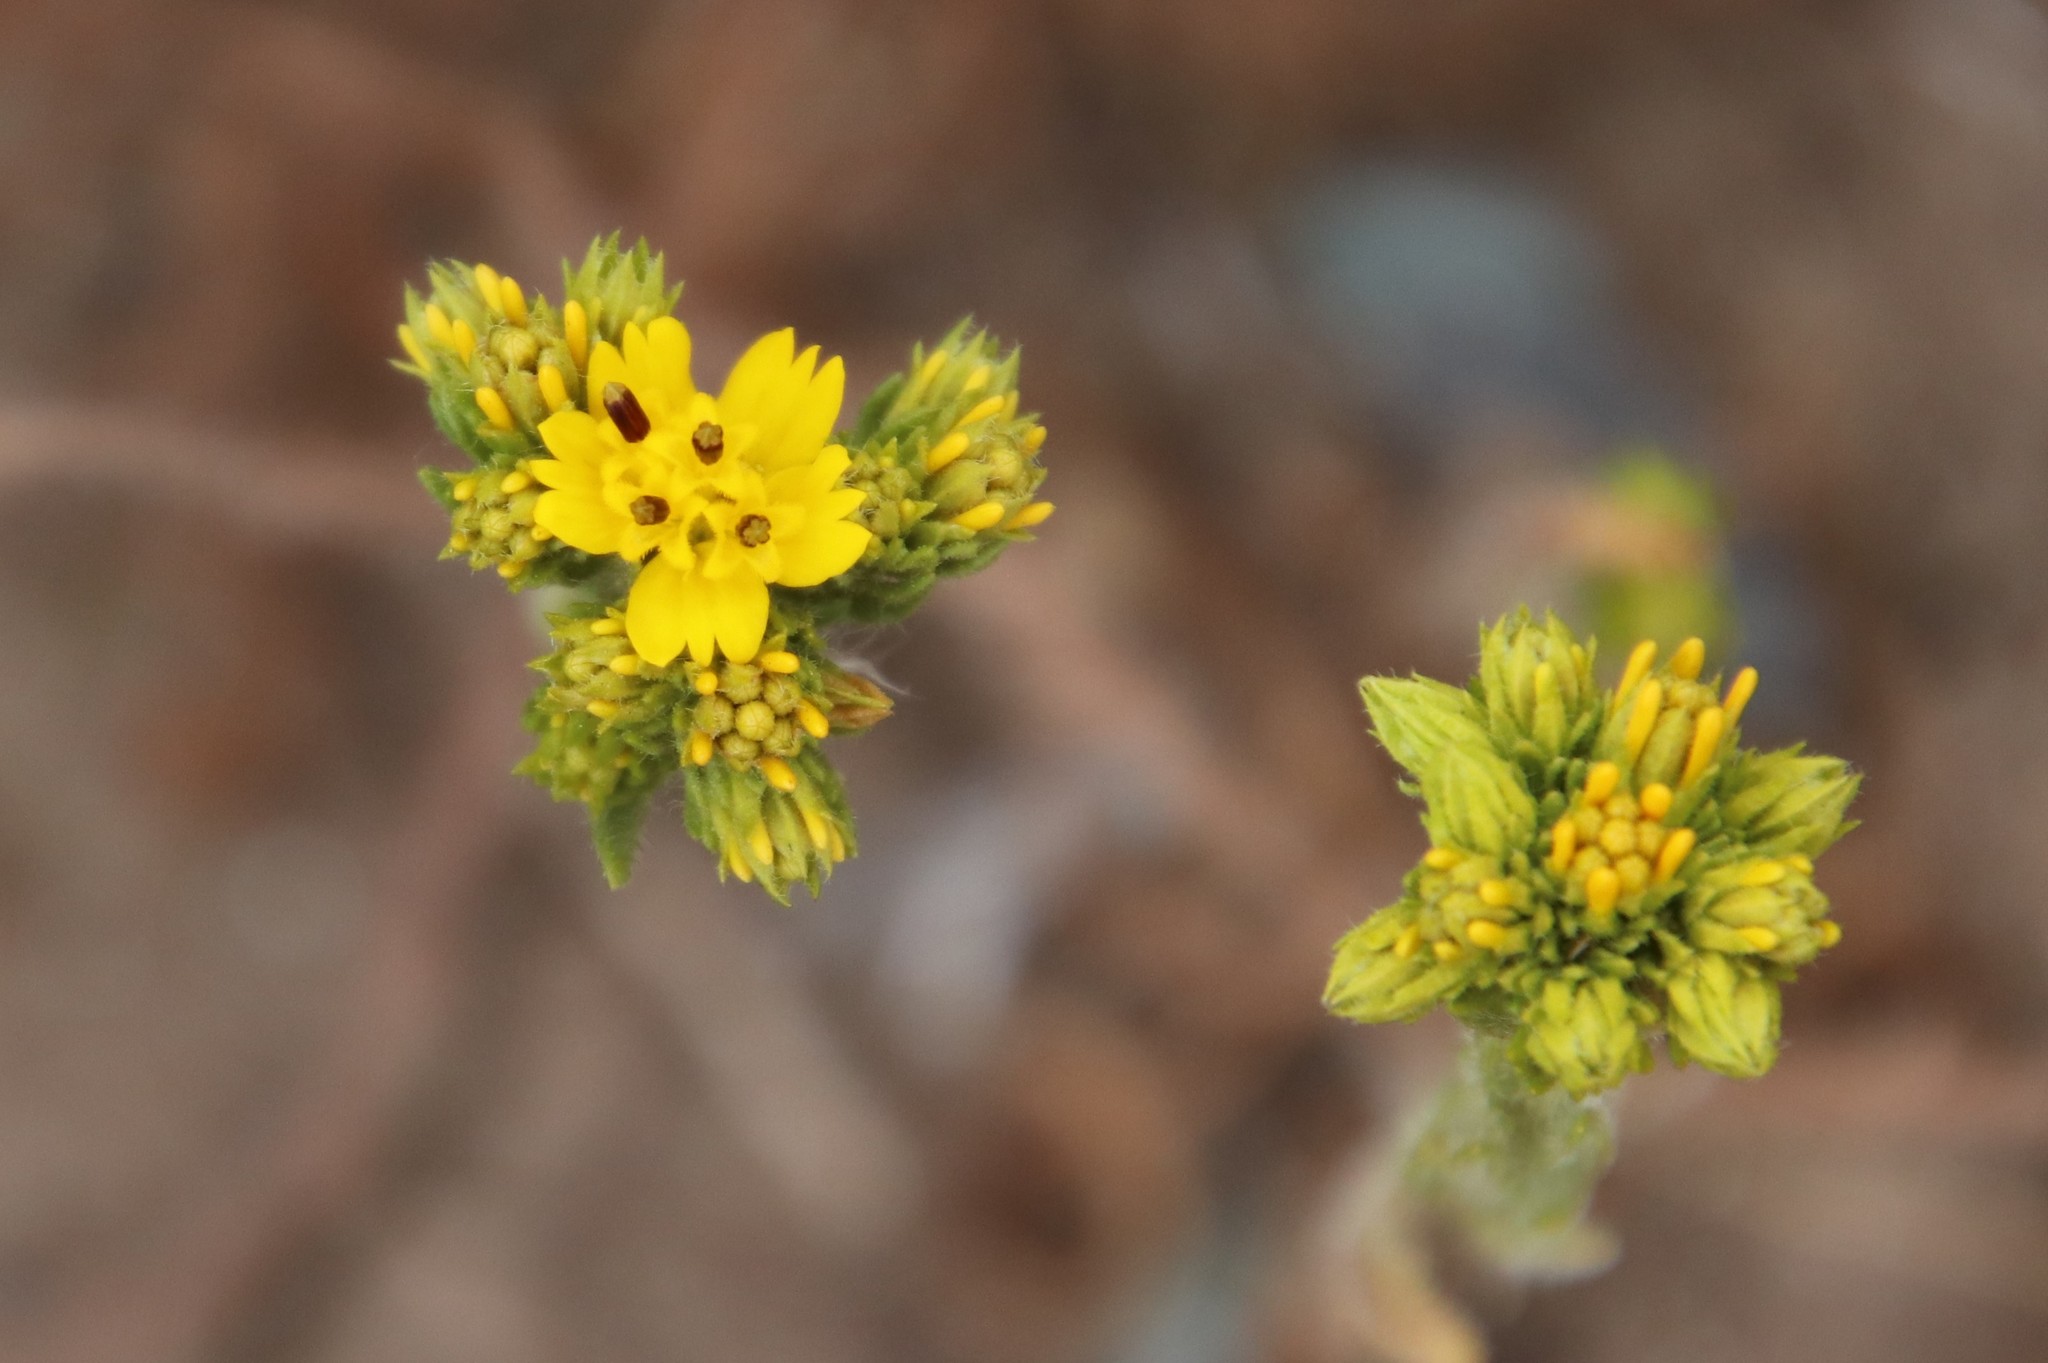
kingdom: Plantae
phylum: Tracheophyta
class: Magnoliopsida
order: Asterales
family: Asteraceae
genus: Deinandra
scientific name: Deinandra fasciculata
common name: Clustered tarweed
